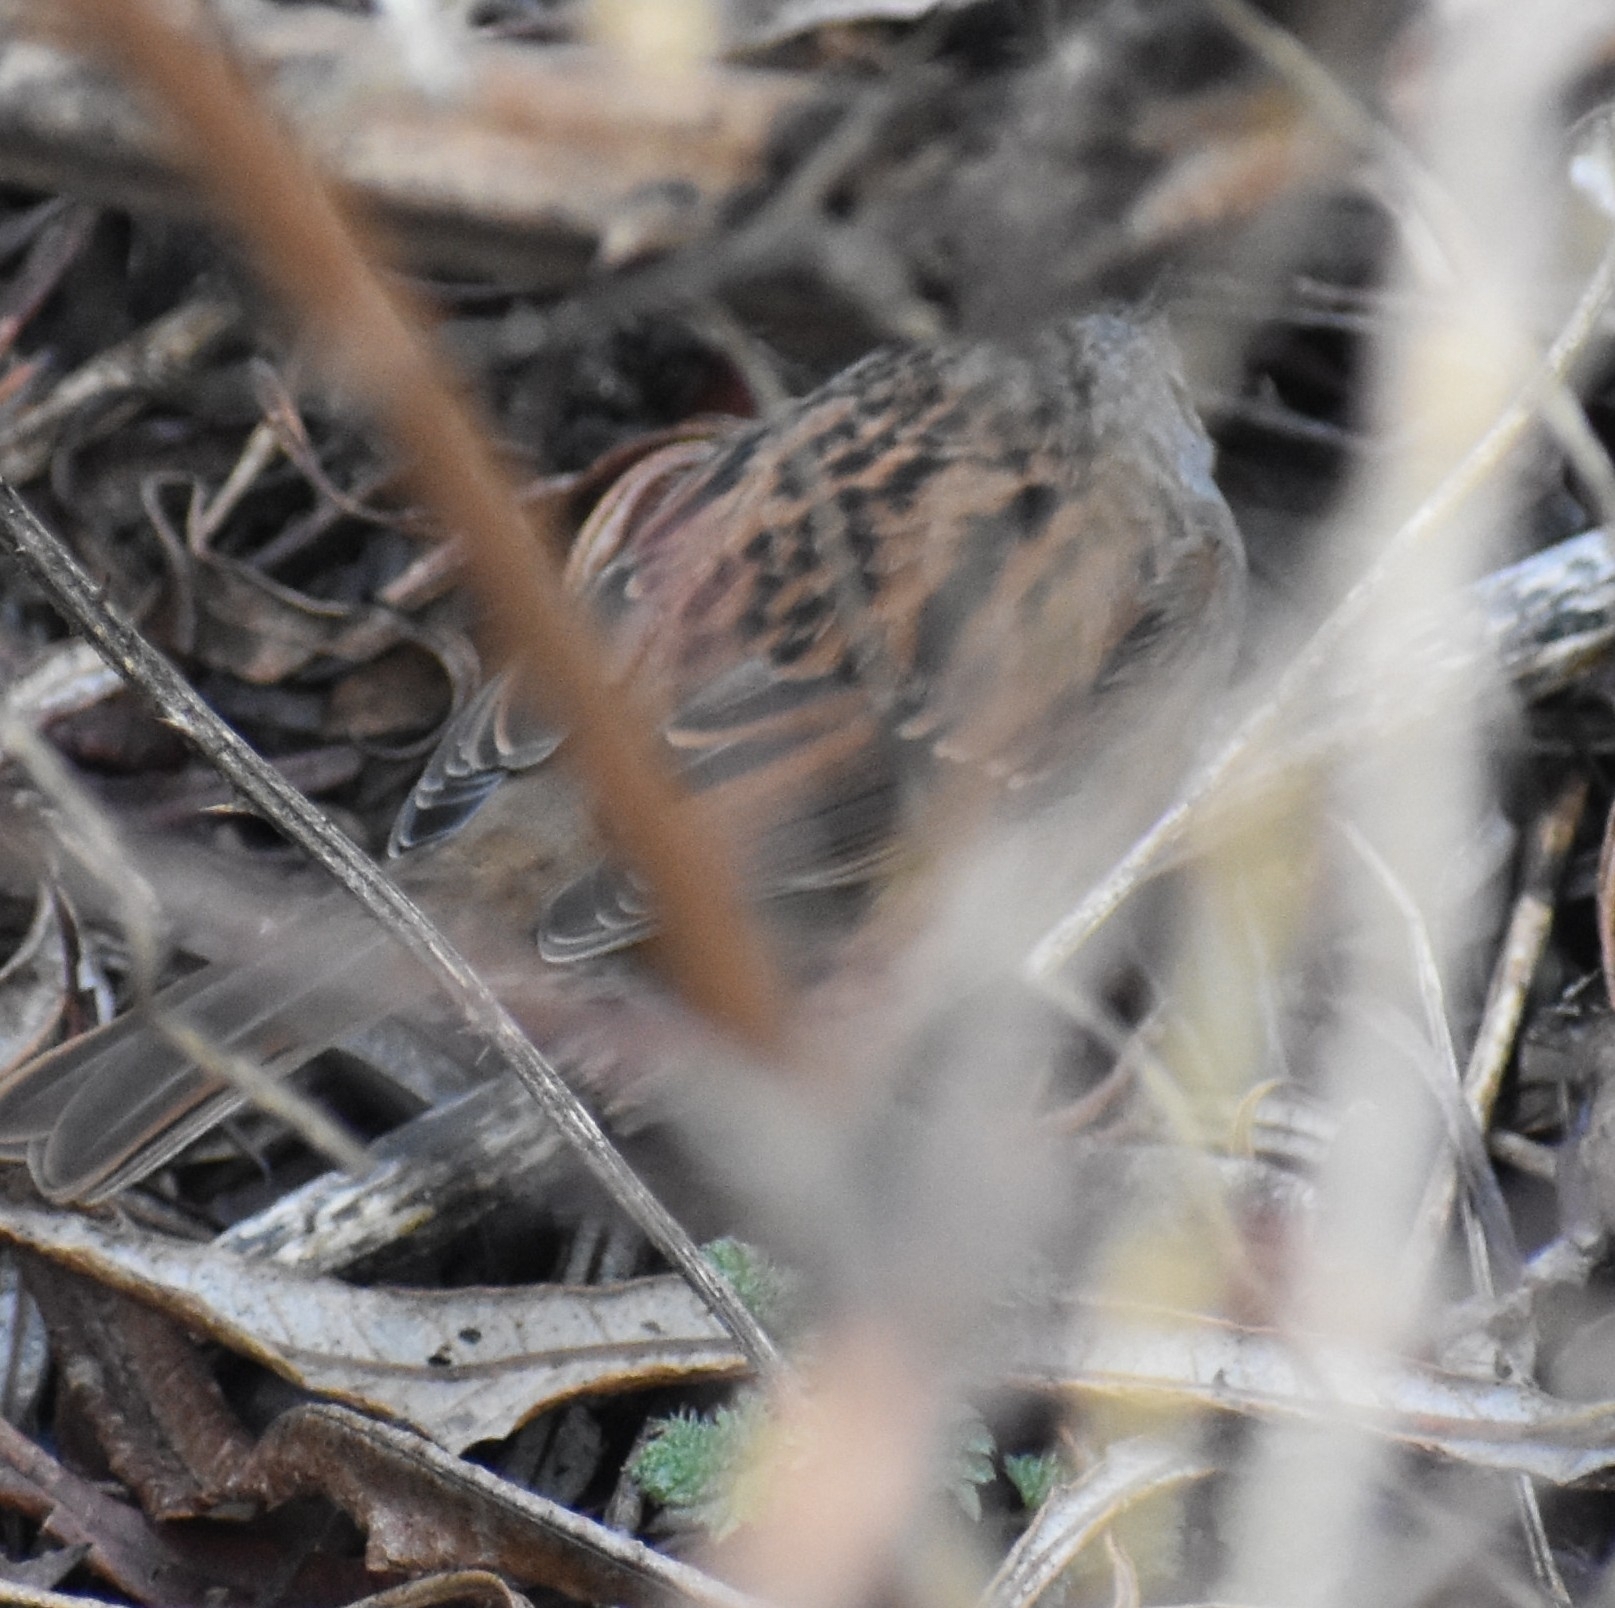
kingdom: Animalia
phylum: Chordata
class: Aves
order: Passeriformes
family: Prunellidae
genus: Prunella
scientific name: Prunella modularis
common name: Dunnock
